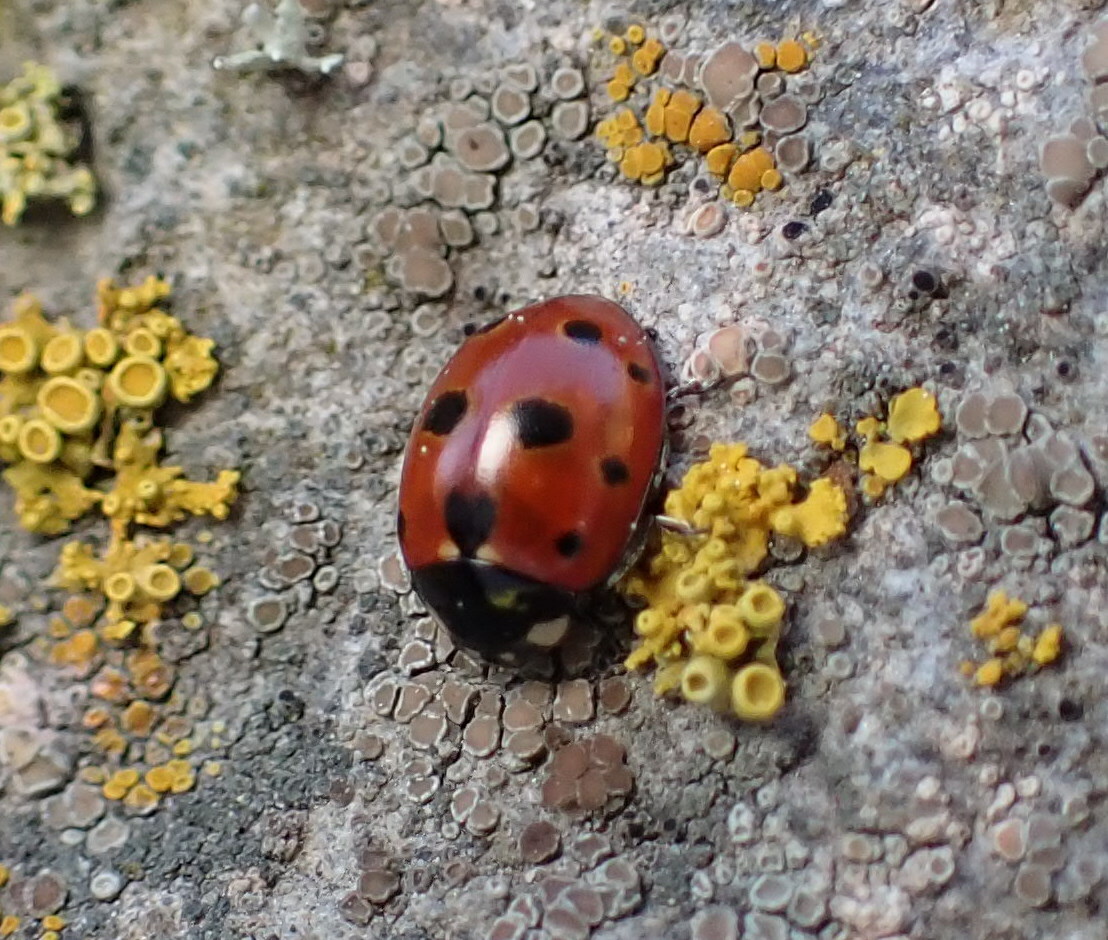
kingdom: Animalia
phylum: Arthropoda
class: Insecta
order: Coleoptera
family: Coccinellidae
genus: Coccinella
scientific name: Coccinella undecimpunctata
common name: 11-spot ladybird
